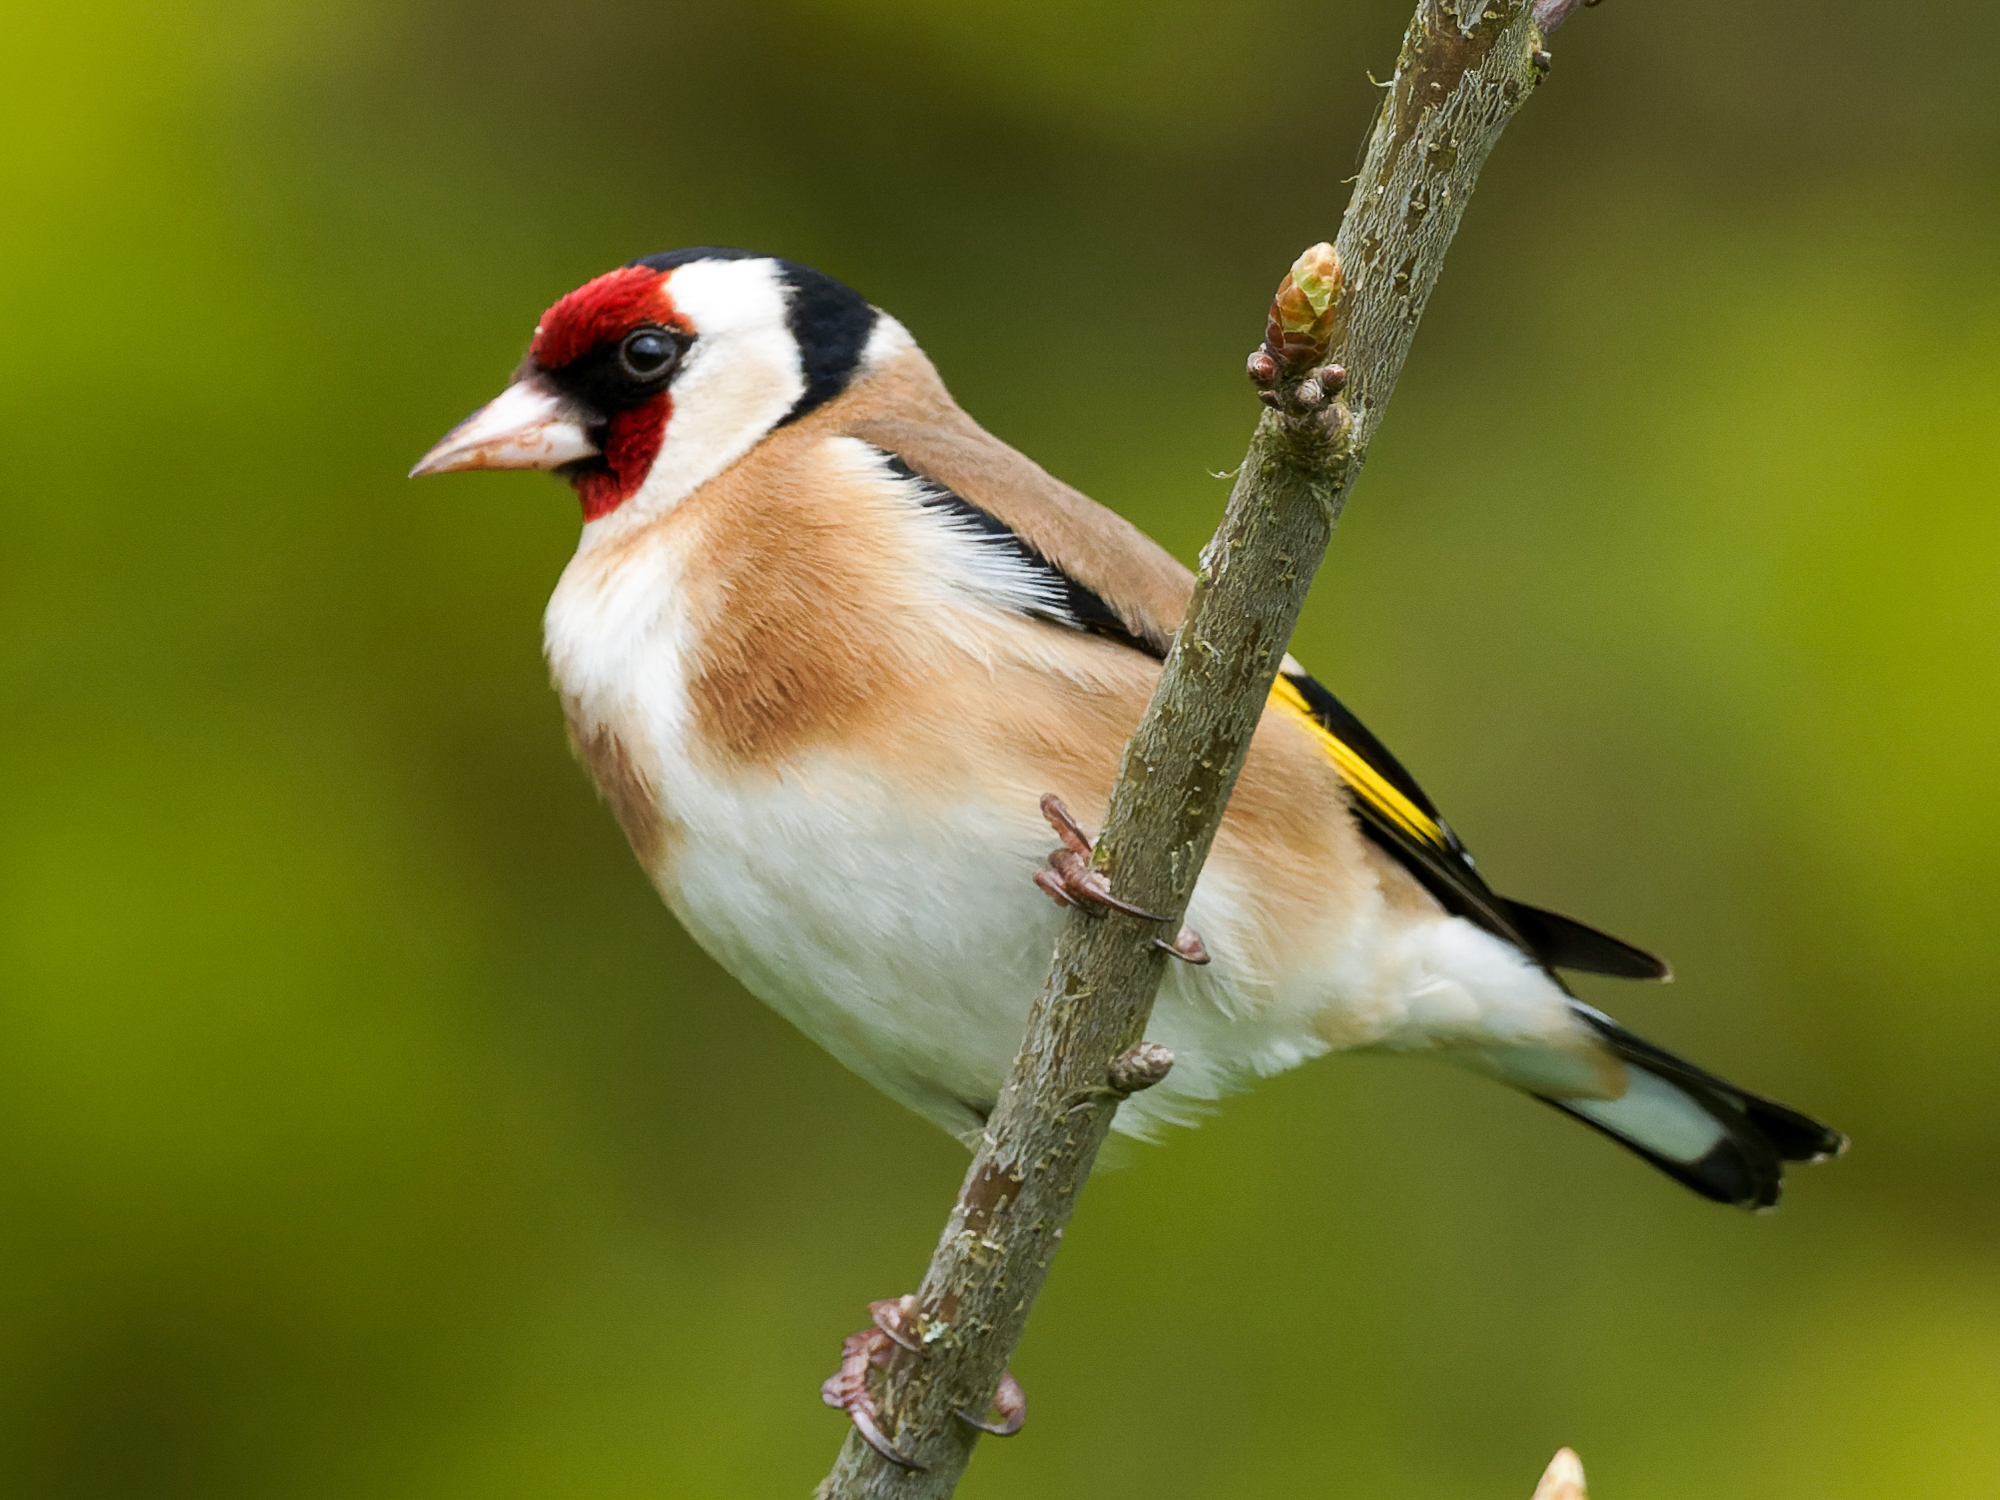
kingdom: Animalia
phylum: Chordata
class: Aves
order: Passeriformes
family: Fringillidae
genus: Carduelis
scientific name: Carduelis carduelis
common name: European goldfinch
